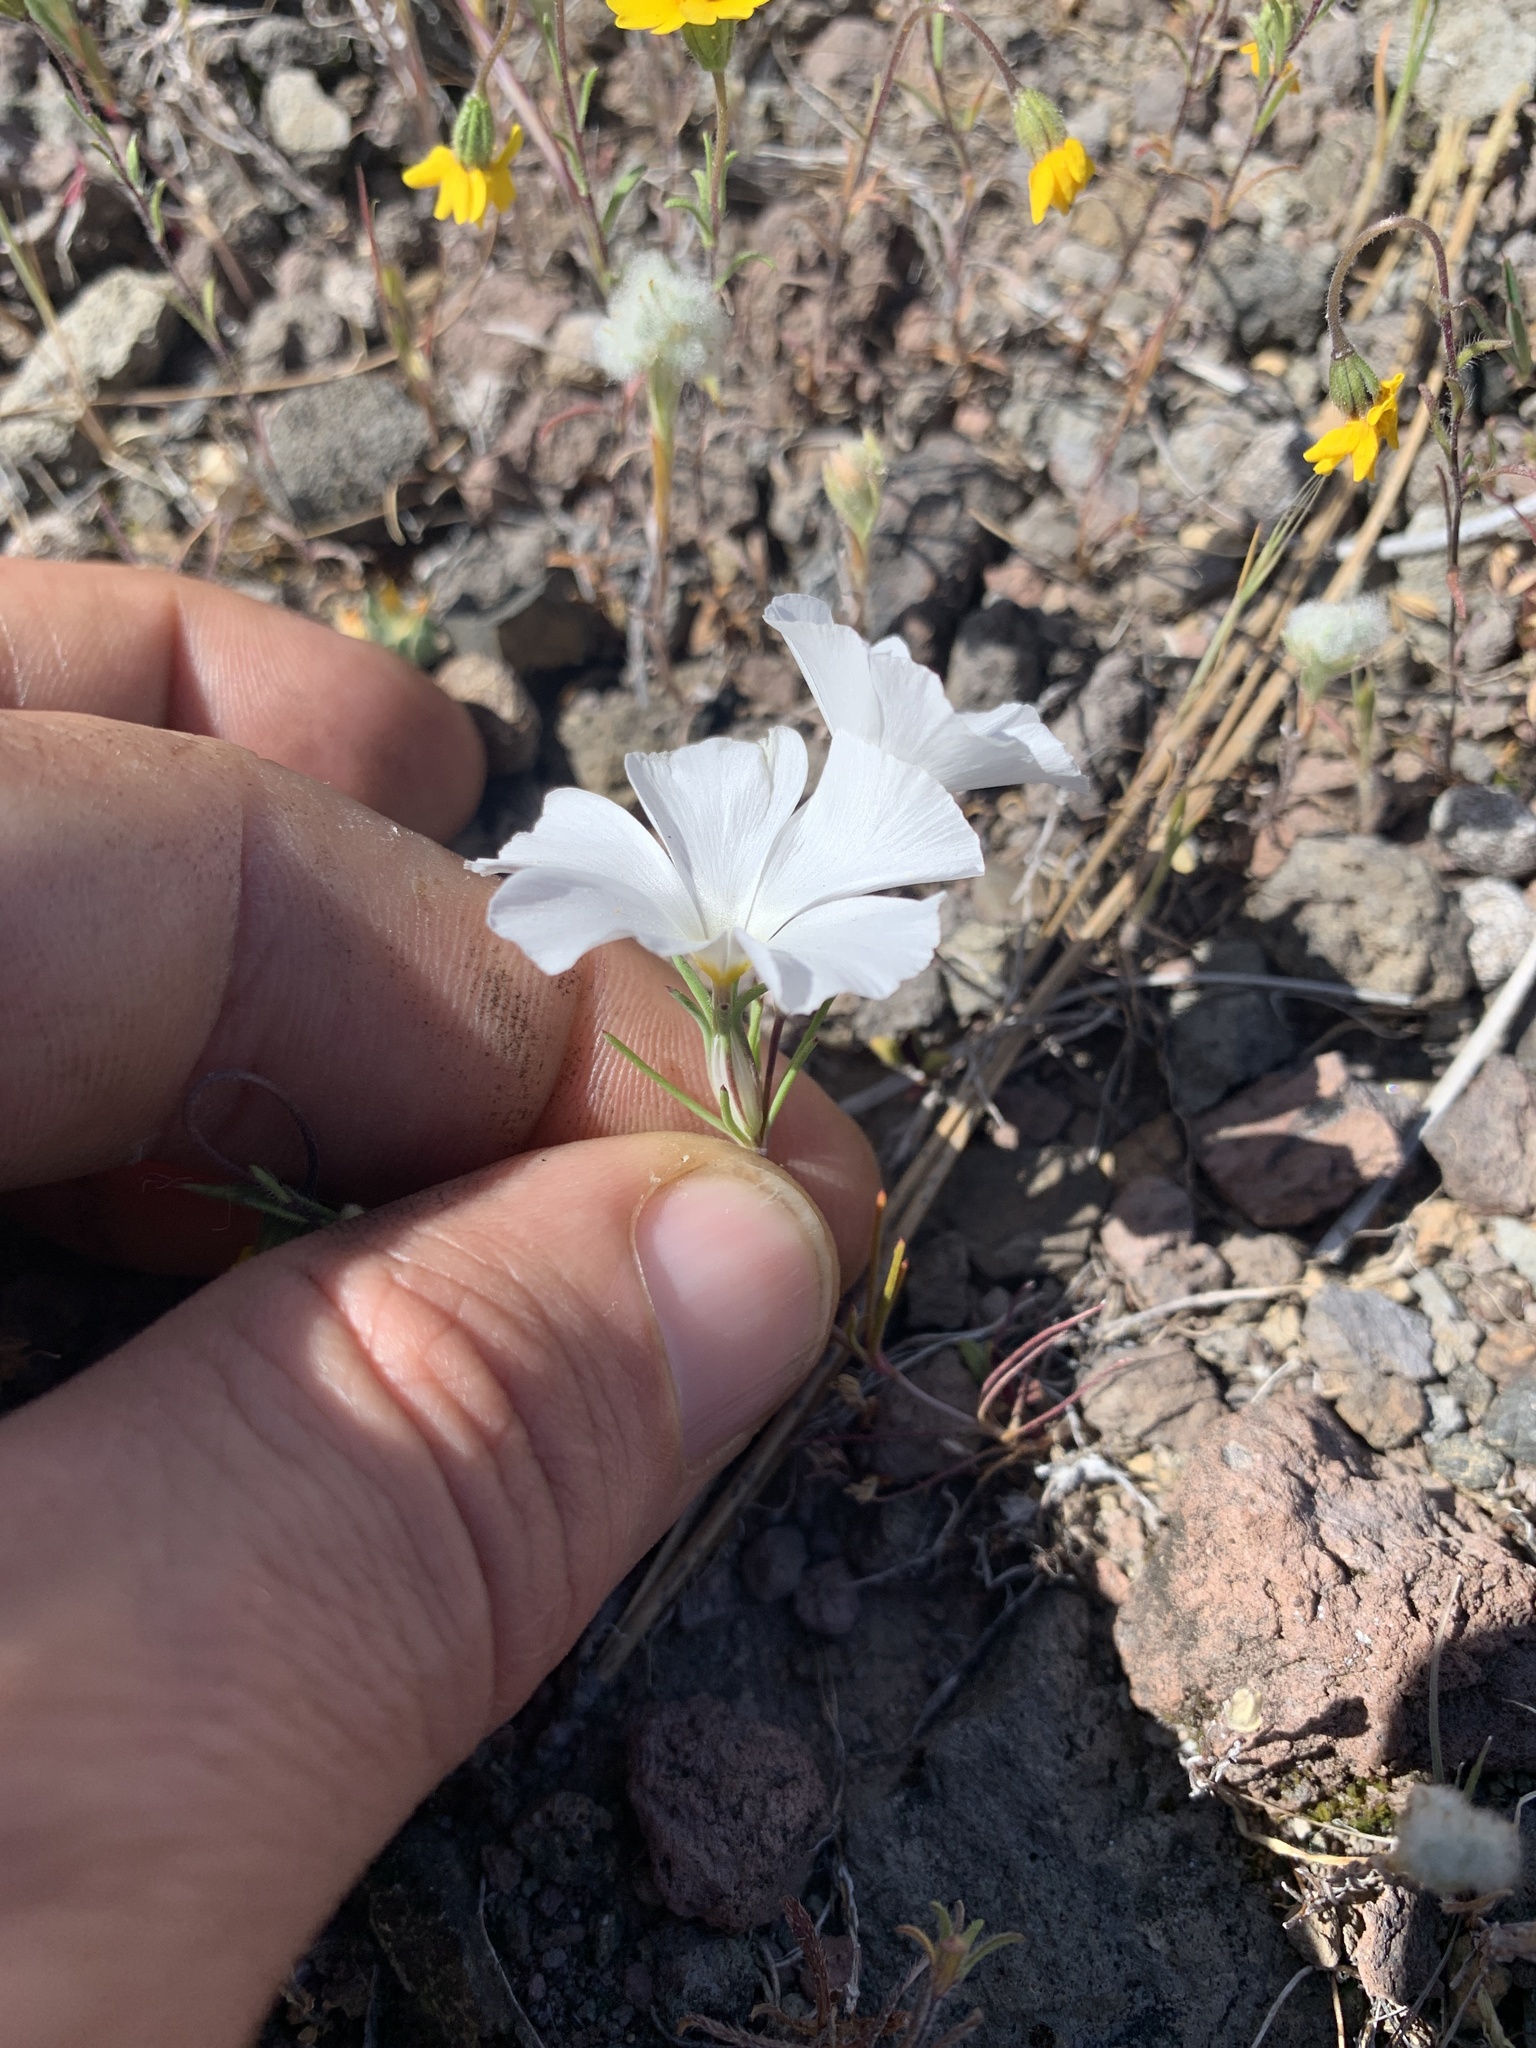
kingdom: Plantae
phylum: Tracheophyta
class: Magnoliopsida
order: Ericales
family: Polemoniaceae
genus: Linanthus
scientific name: Linanthus dichotomus
